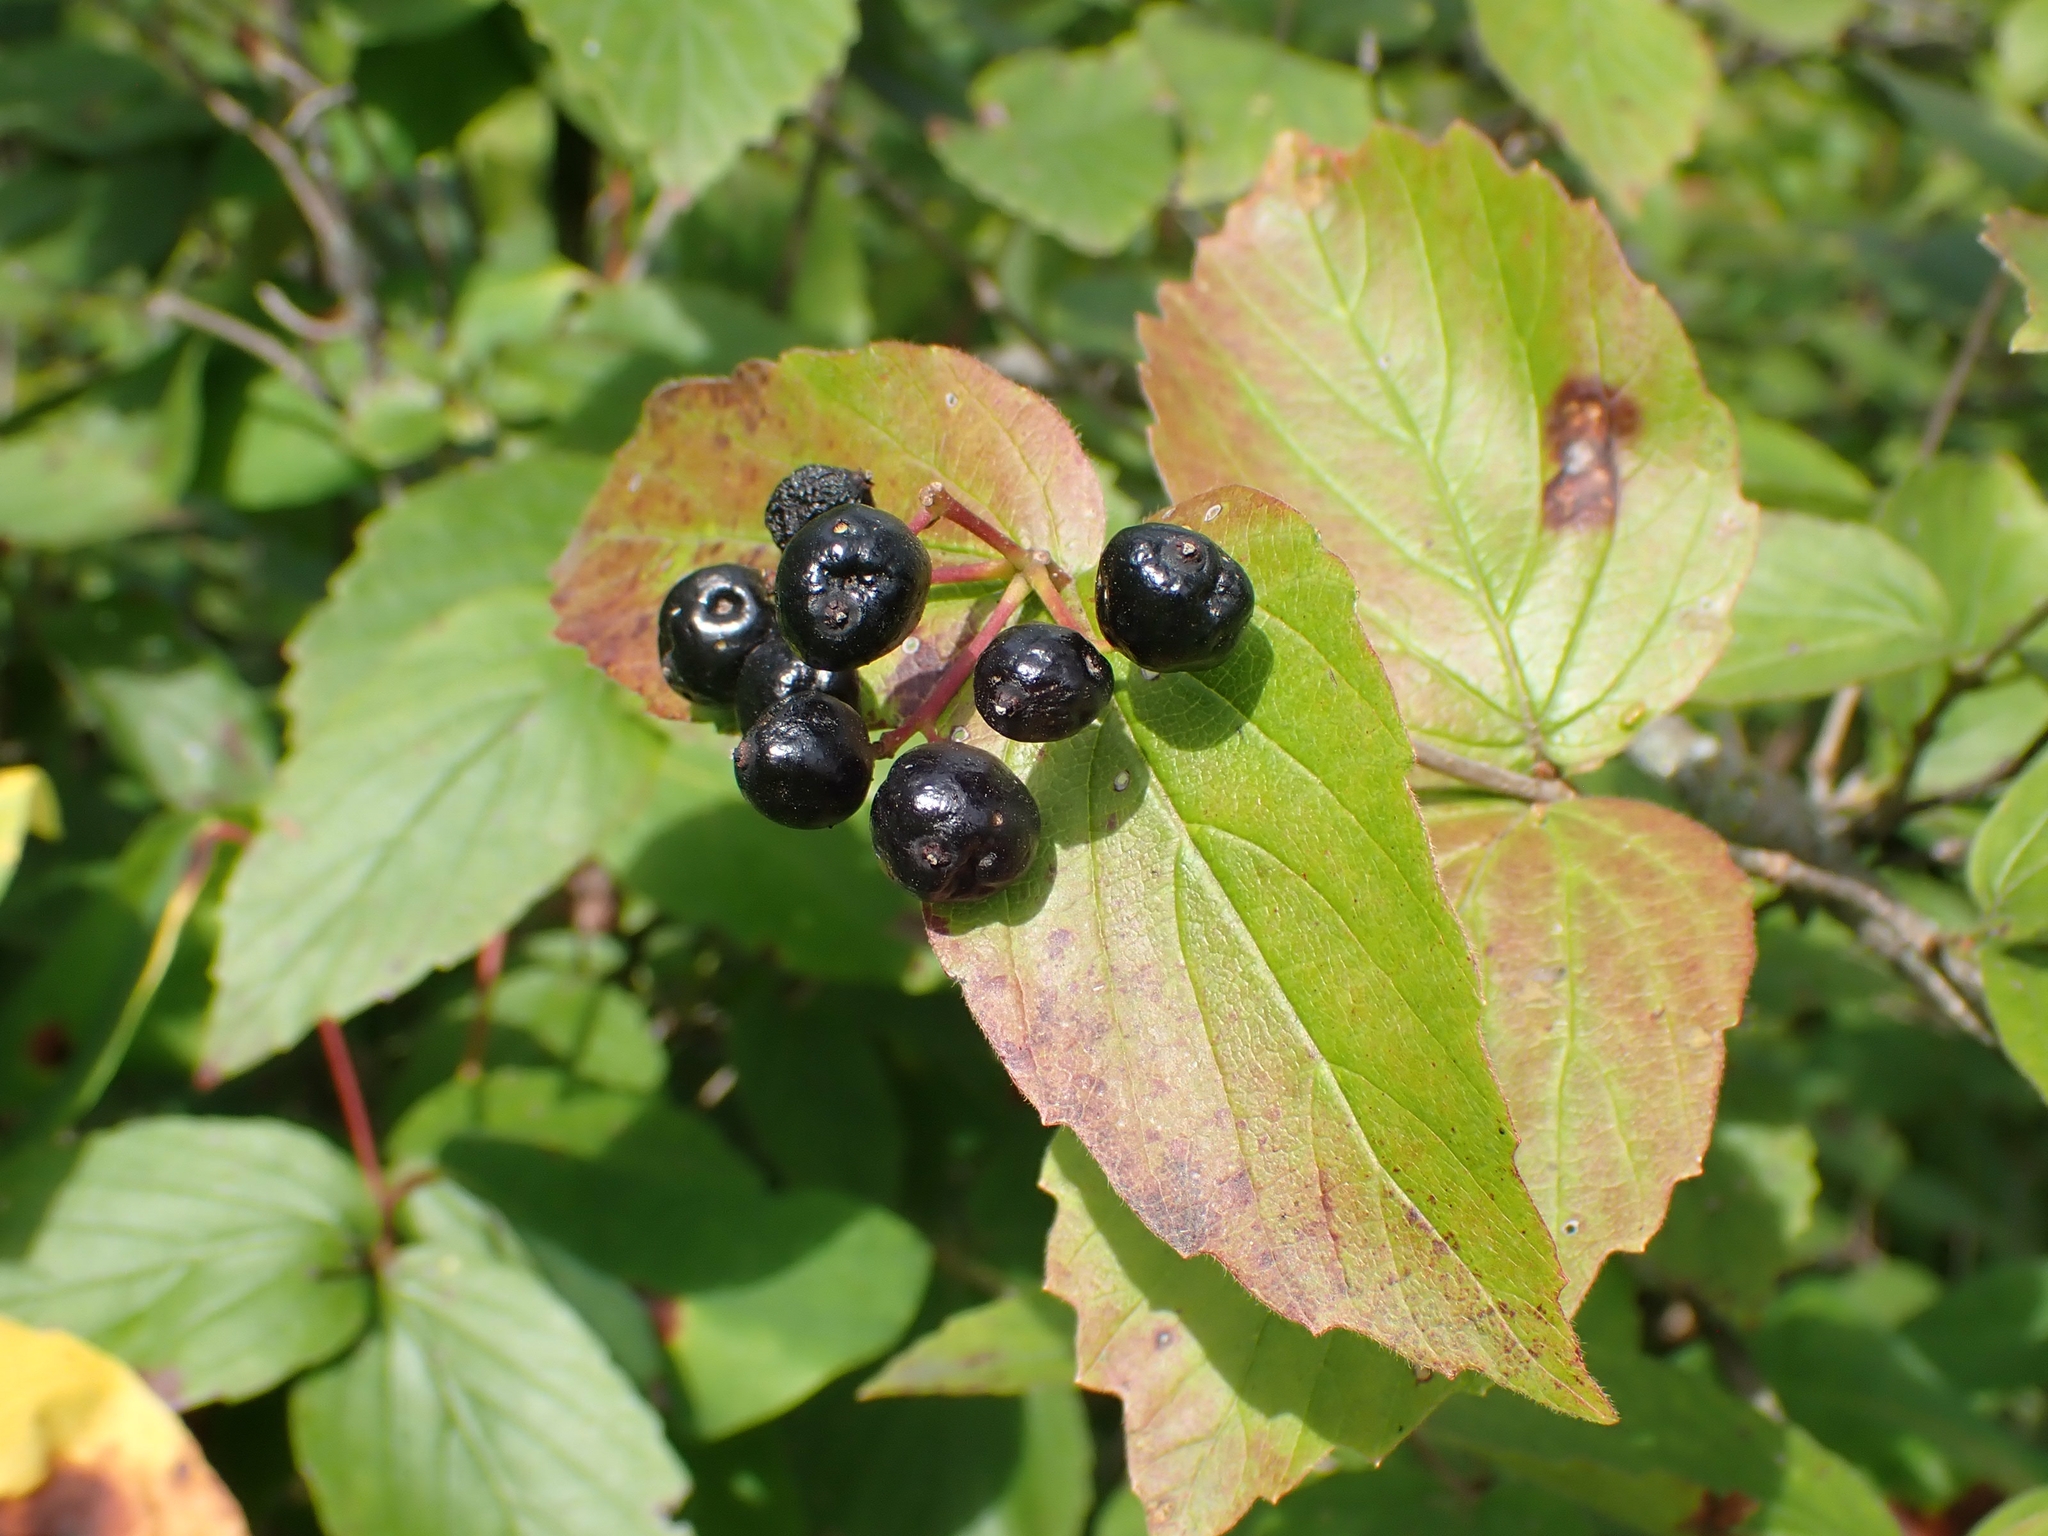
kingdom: Plantae
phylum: Tracheophyta
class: Magnoliopsida
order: Dipsacales
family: Viburnaceae
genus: Viburnum
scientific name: Viburnum rafinesqueanum
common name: Downy arrow-wood
